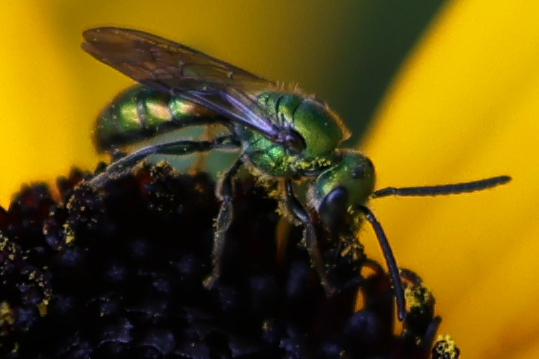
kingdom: Animalia
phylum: Arthropoda
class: Insecta
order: Hymenoptera
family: Halictidae
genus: Augochlora
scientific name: Augochlora pura
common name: Pure green sweat bee
